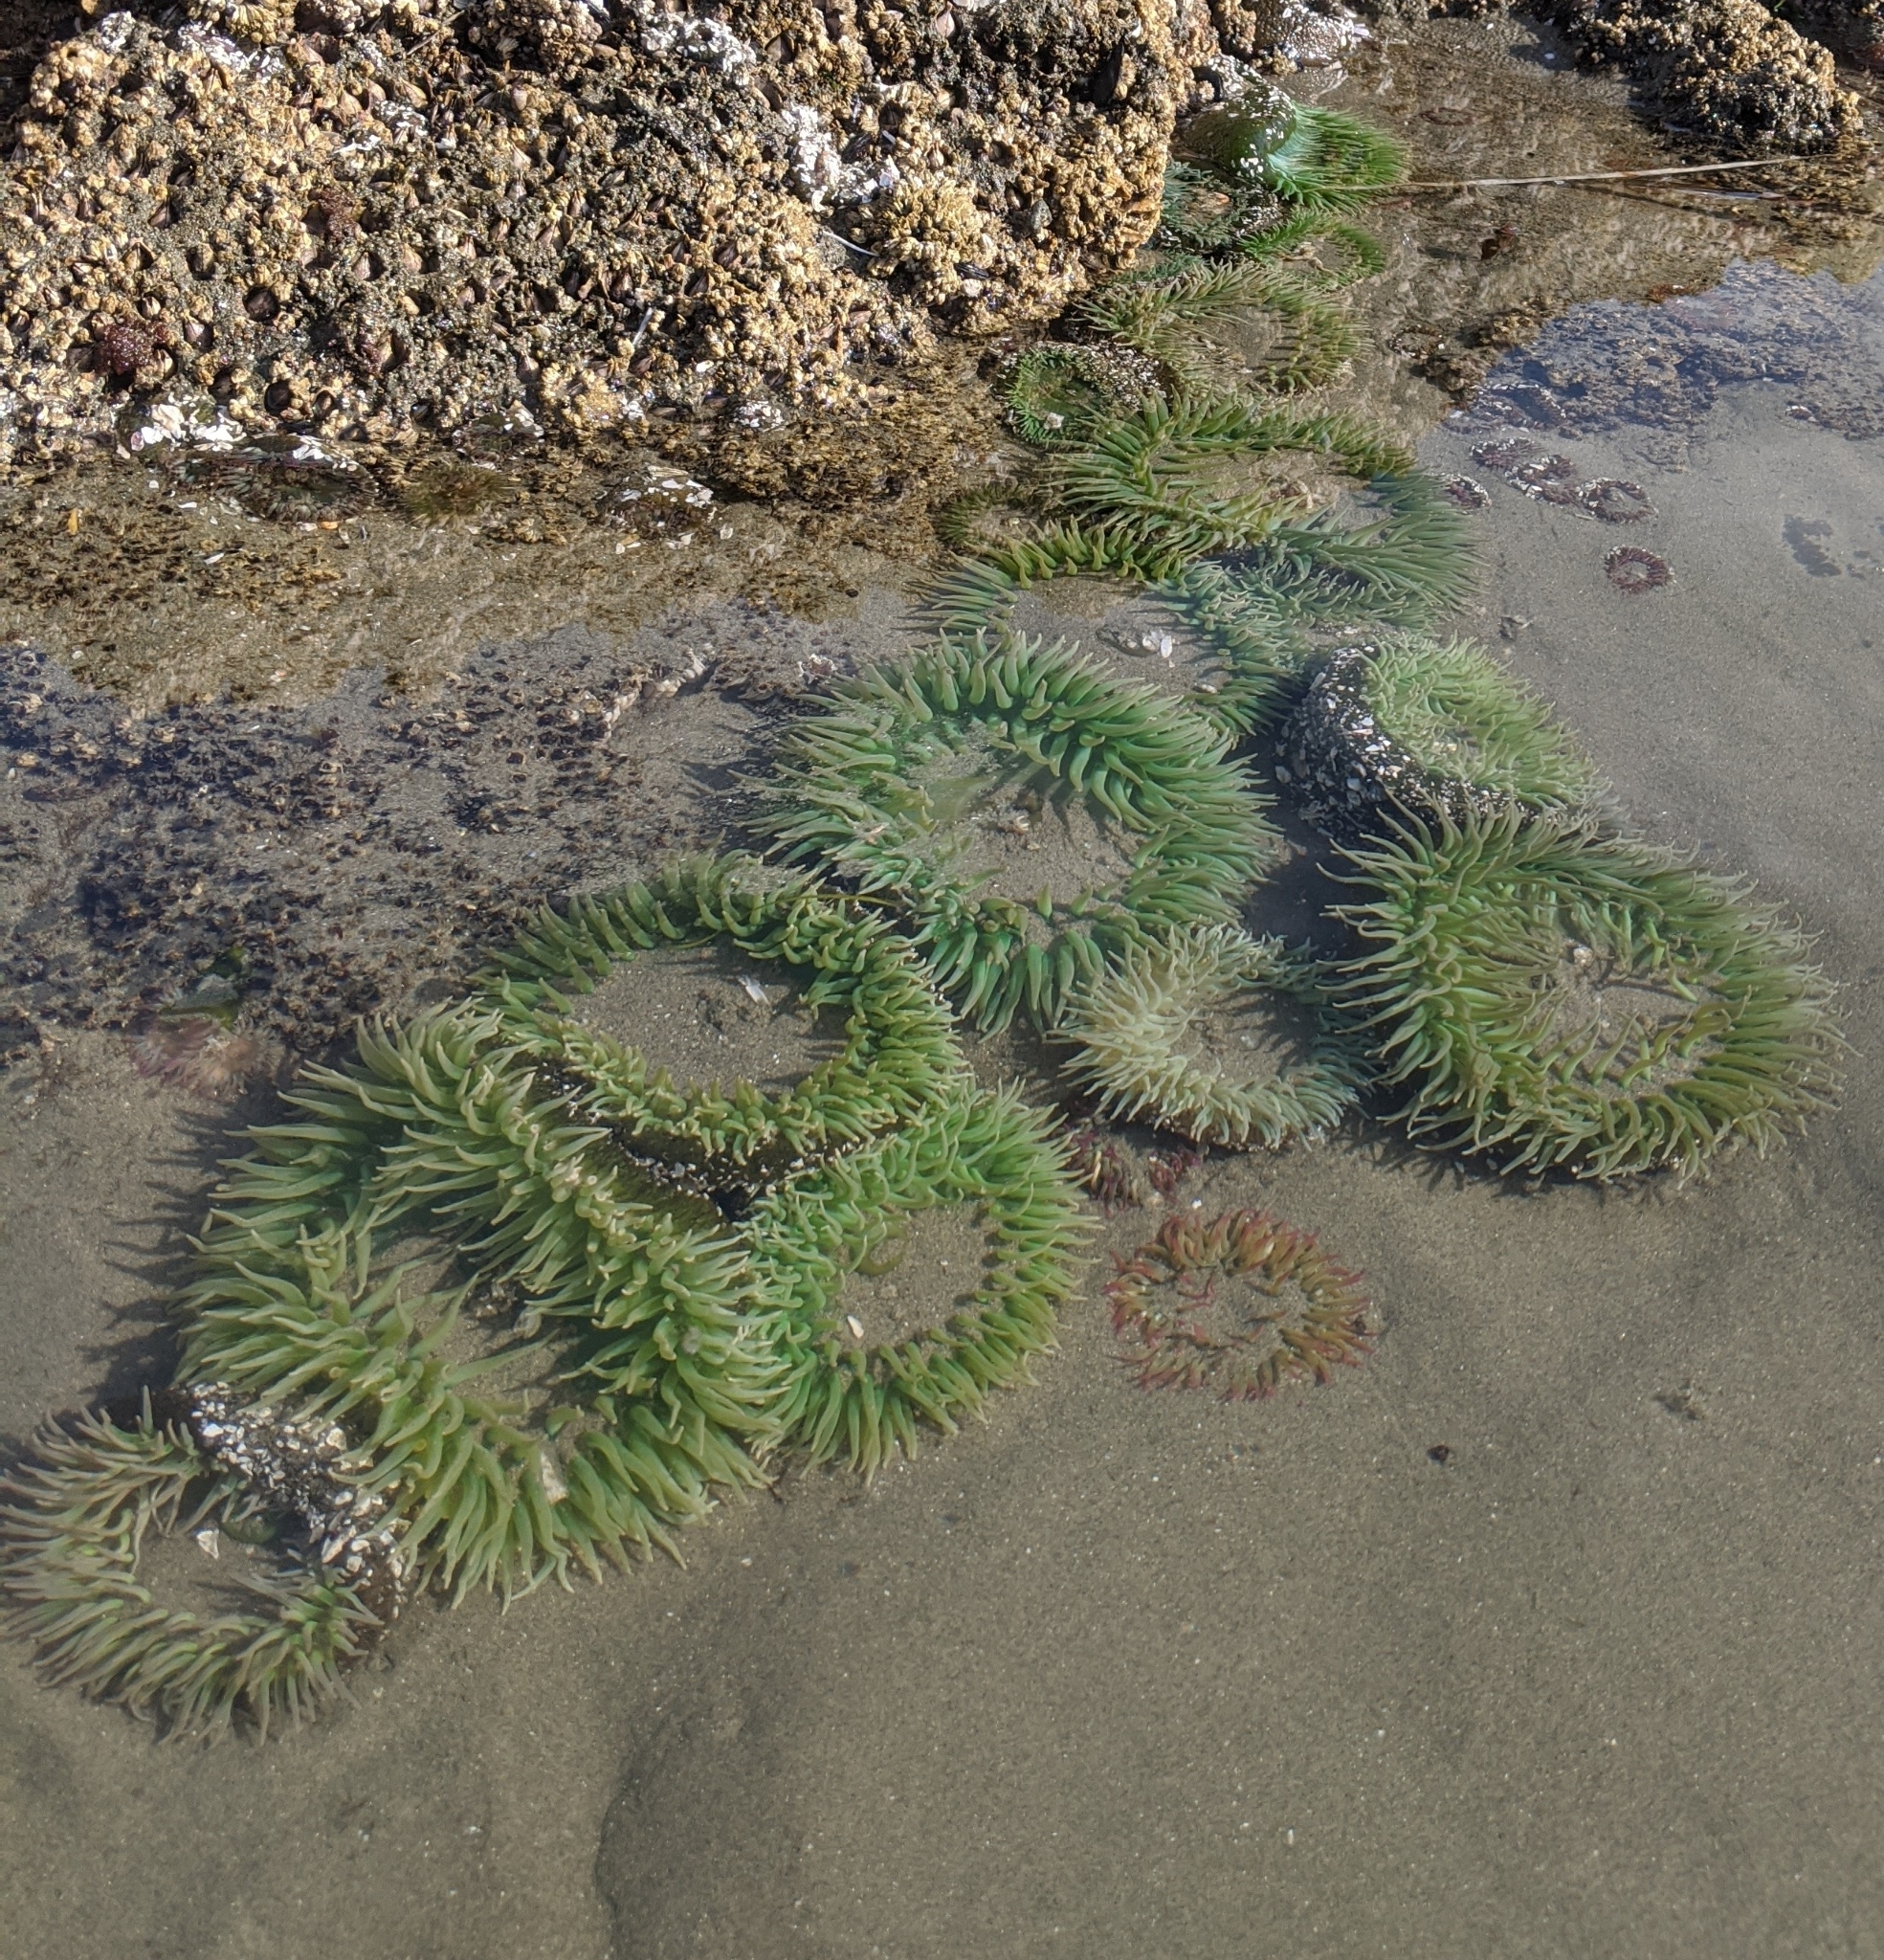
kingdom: Animalia
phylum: Cnidaria
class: Anthozoa
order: Actiniaria
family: Actiniidae
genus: Anthopleura
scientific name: Anthopleura xanthogrammica
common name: Giant green anemone
